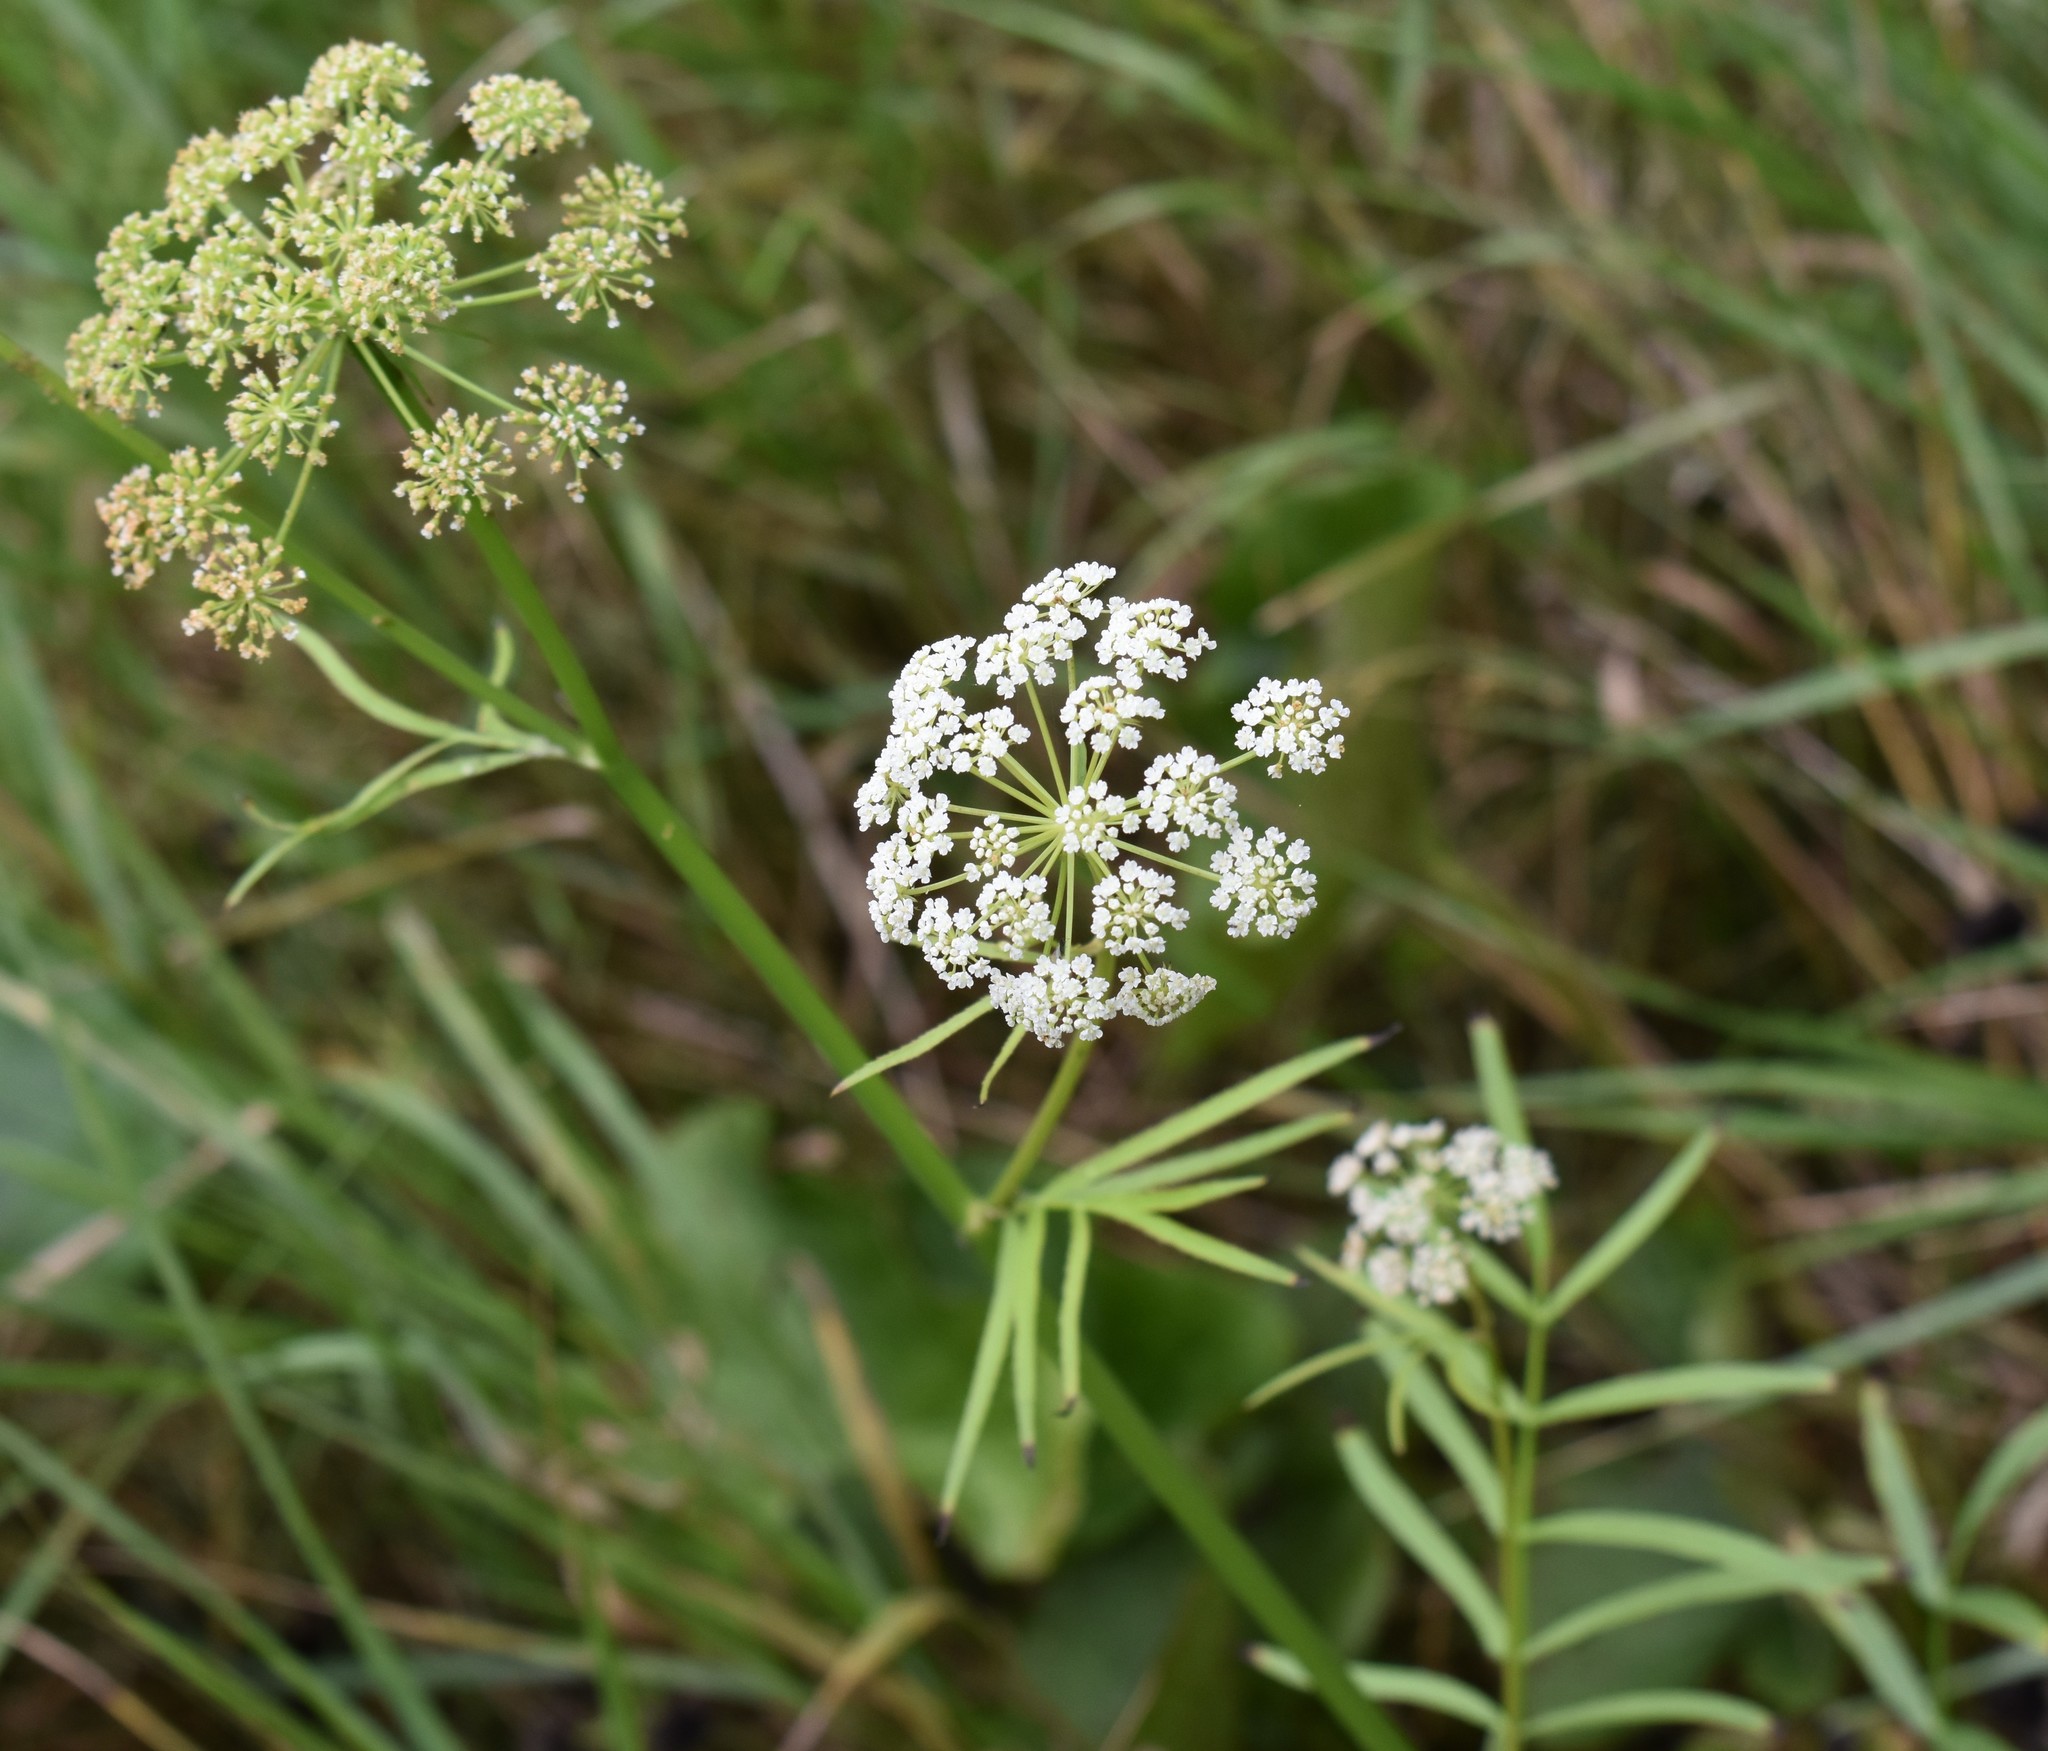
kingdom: Plantae
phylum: Tracheophyta
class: Magnoliopsida
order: Apiales
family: Apiaceae
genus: Sium
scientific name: Sium suave
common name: Hemlock water-parsnip
